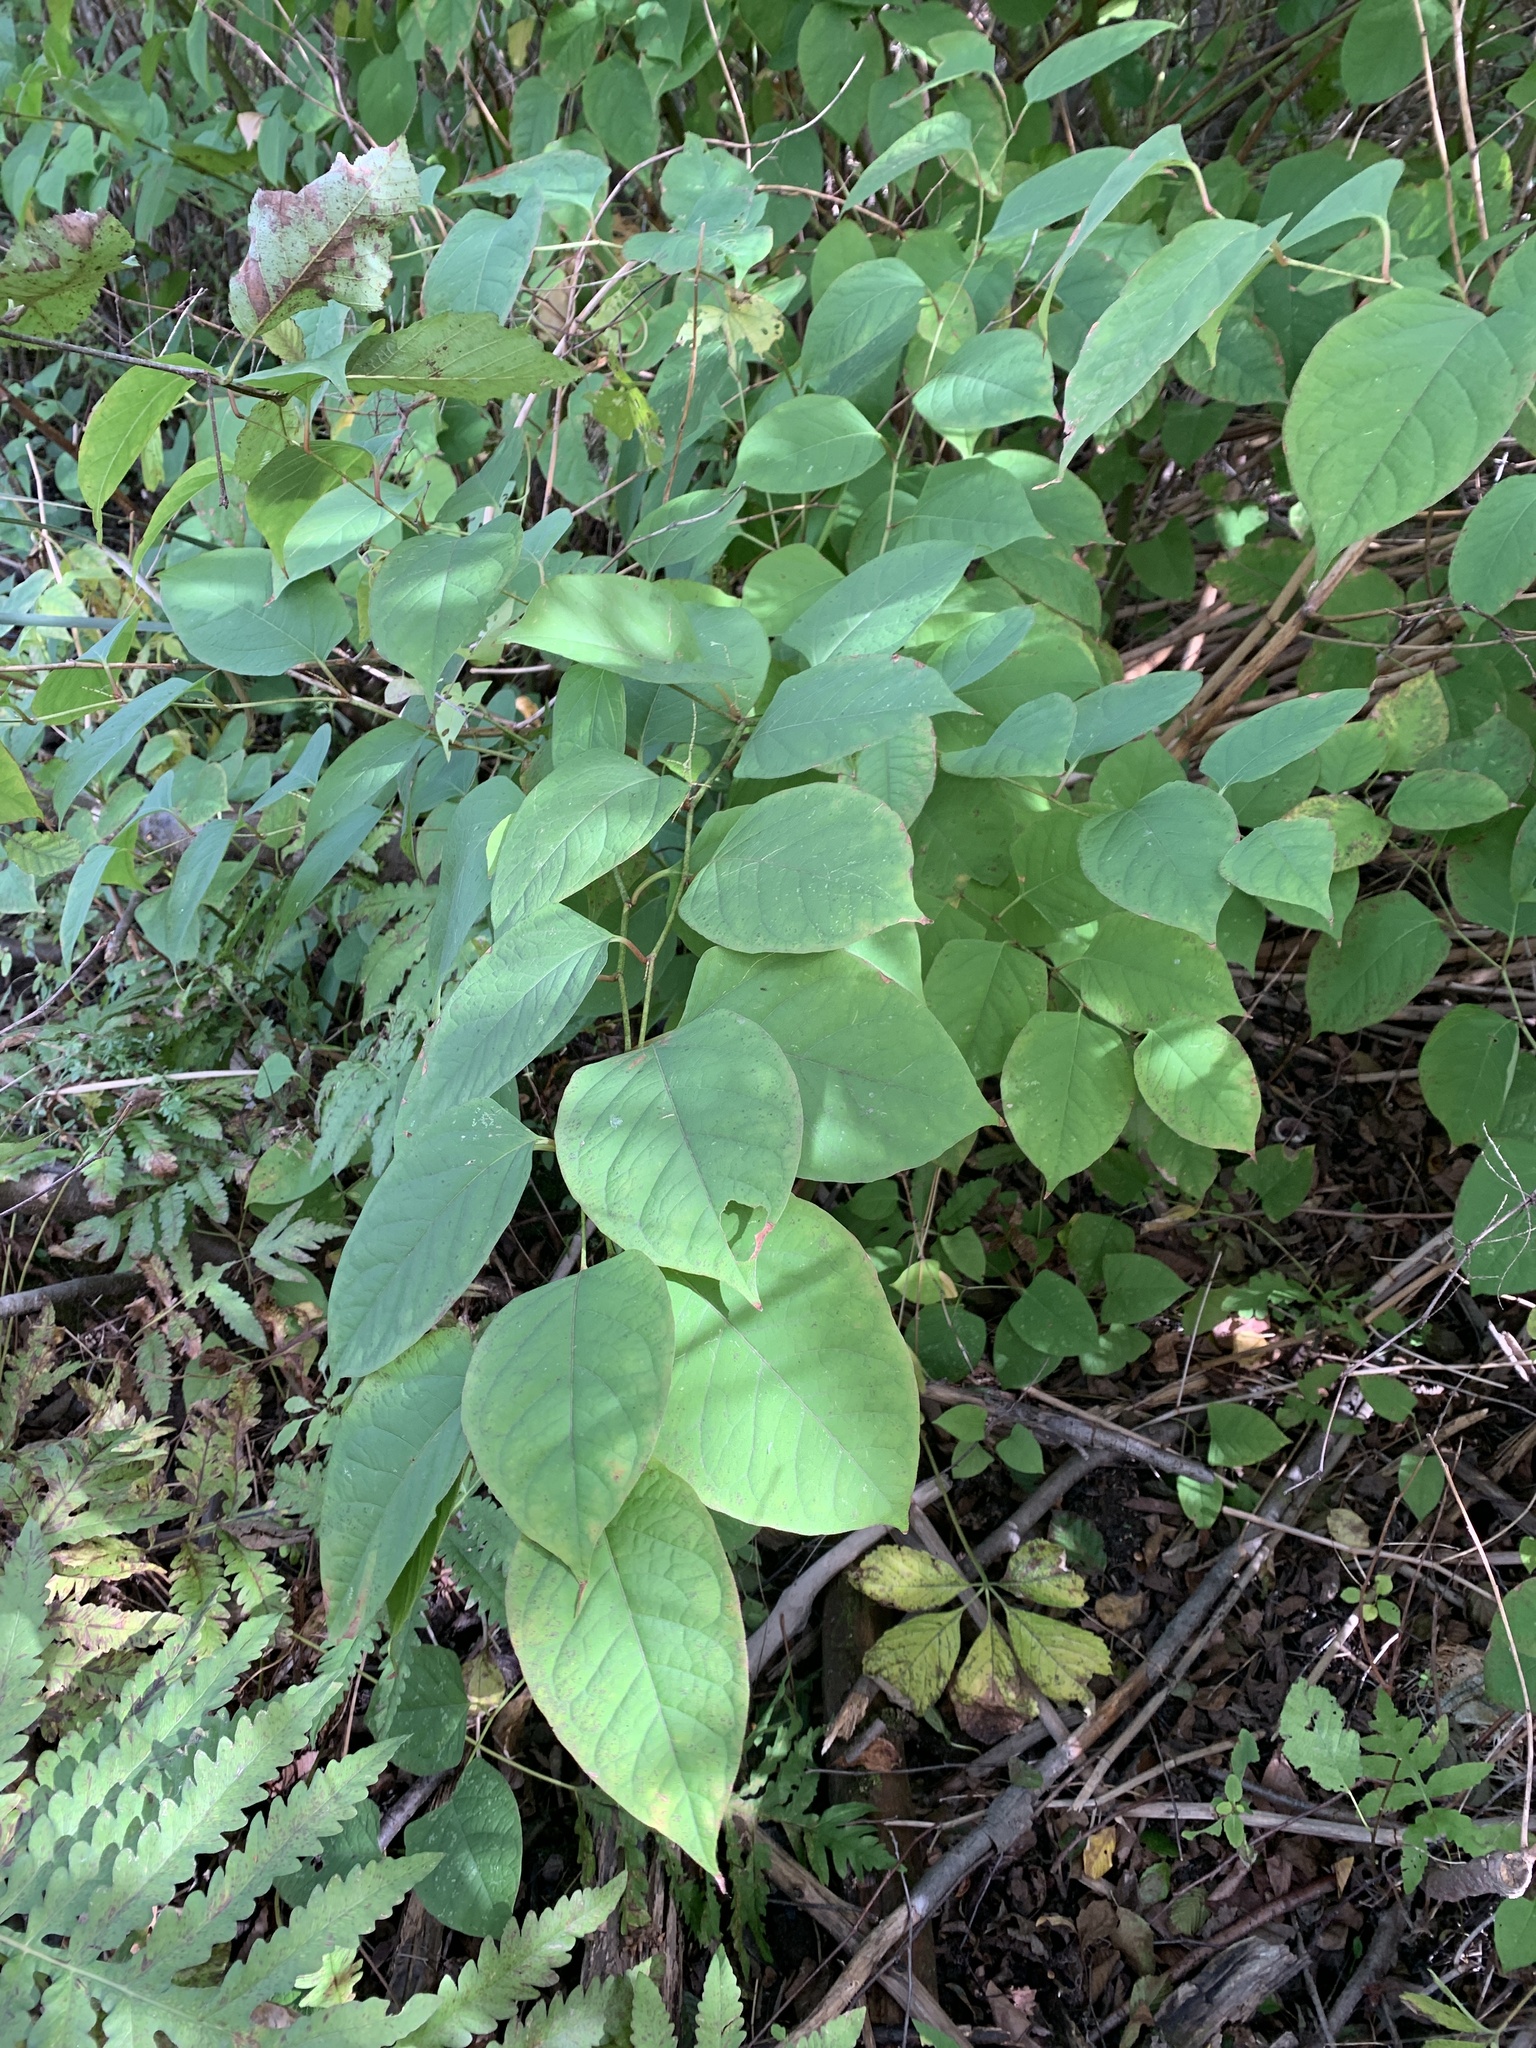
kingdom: Plantae
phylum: Tracheophyta
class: Magnoliopsida
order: Caryophyllales
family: Polygonaceae
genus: Reynoutria
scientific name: Reynoutria japonica
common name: Japanese knotweed
